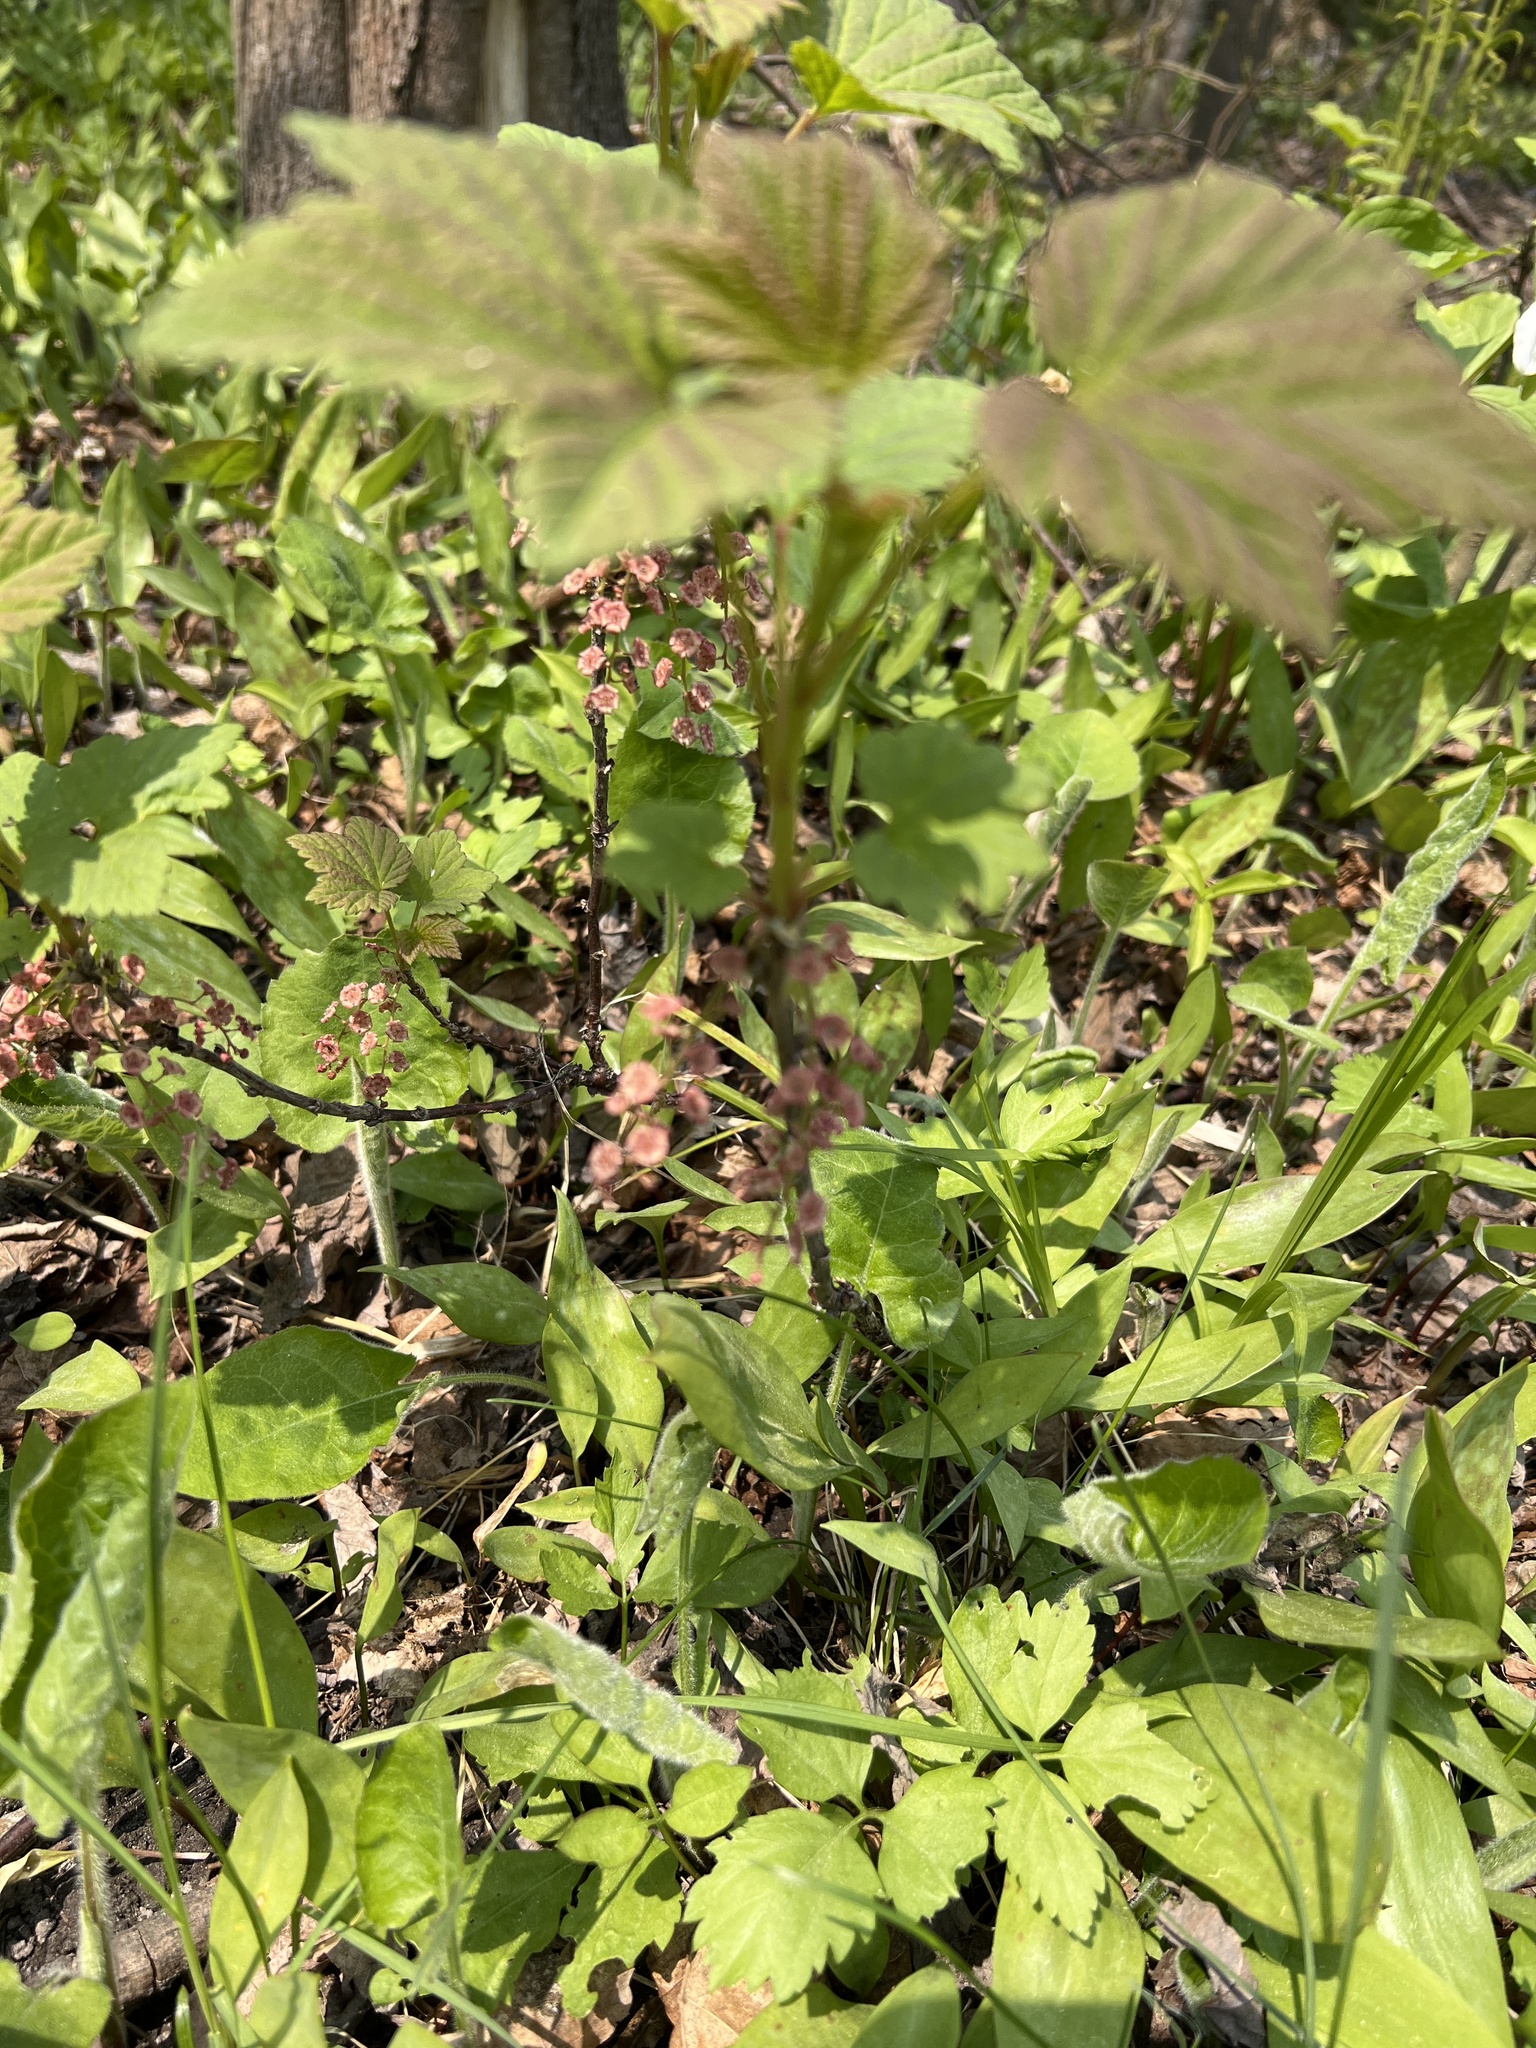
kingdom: Plantae
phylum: Tracheophyta
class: Magnoliopsida
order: Saxifragales
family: Grossulariaceae
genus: Ribes
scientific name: Ribes triste
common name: Swamp red currant
